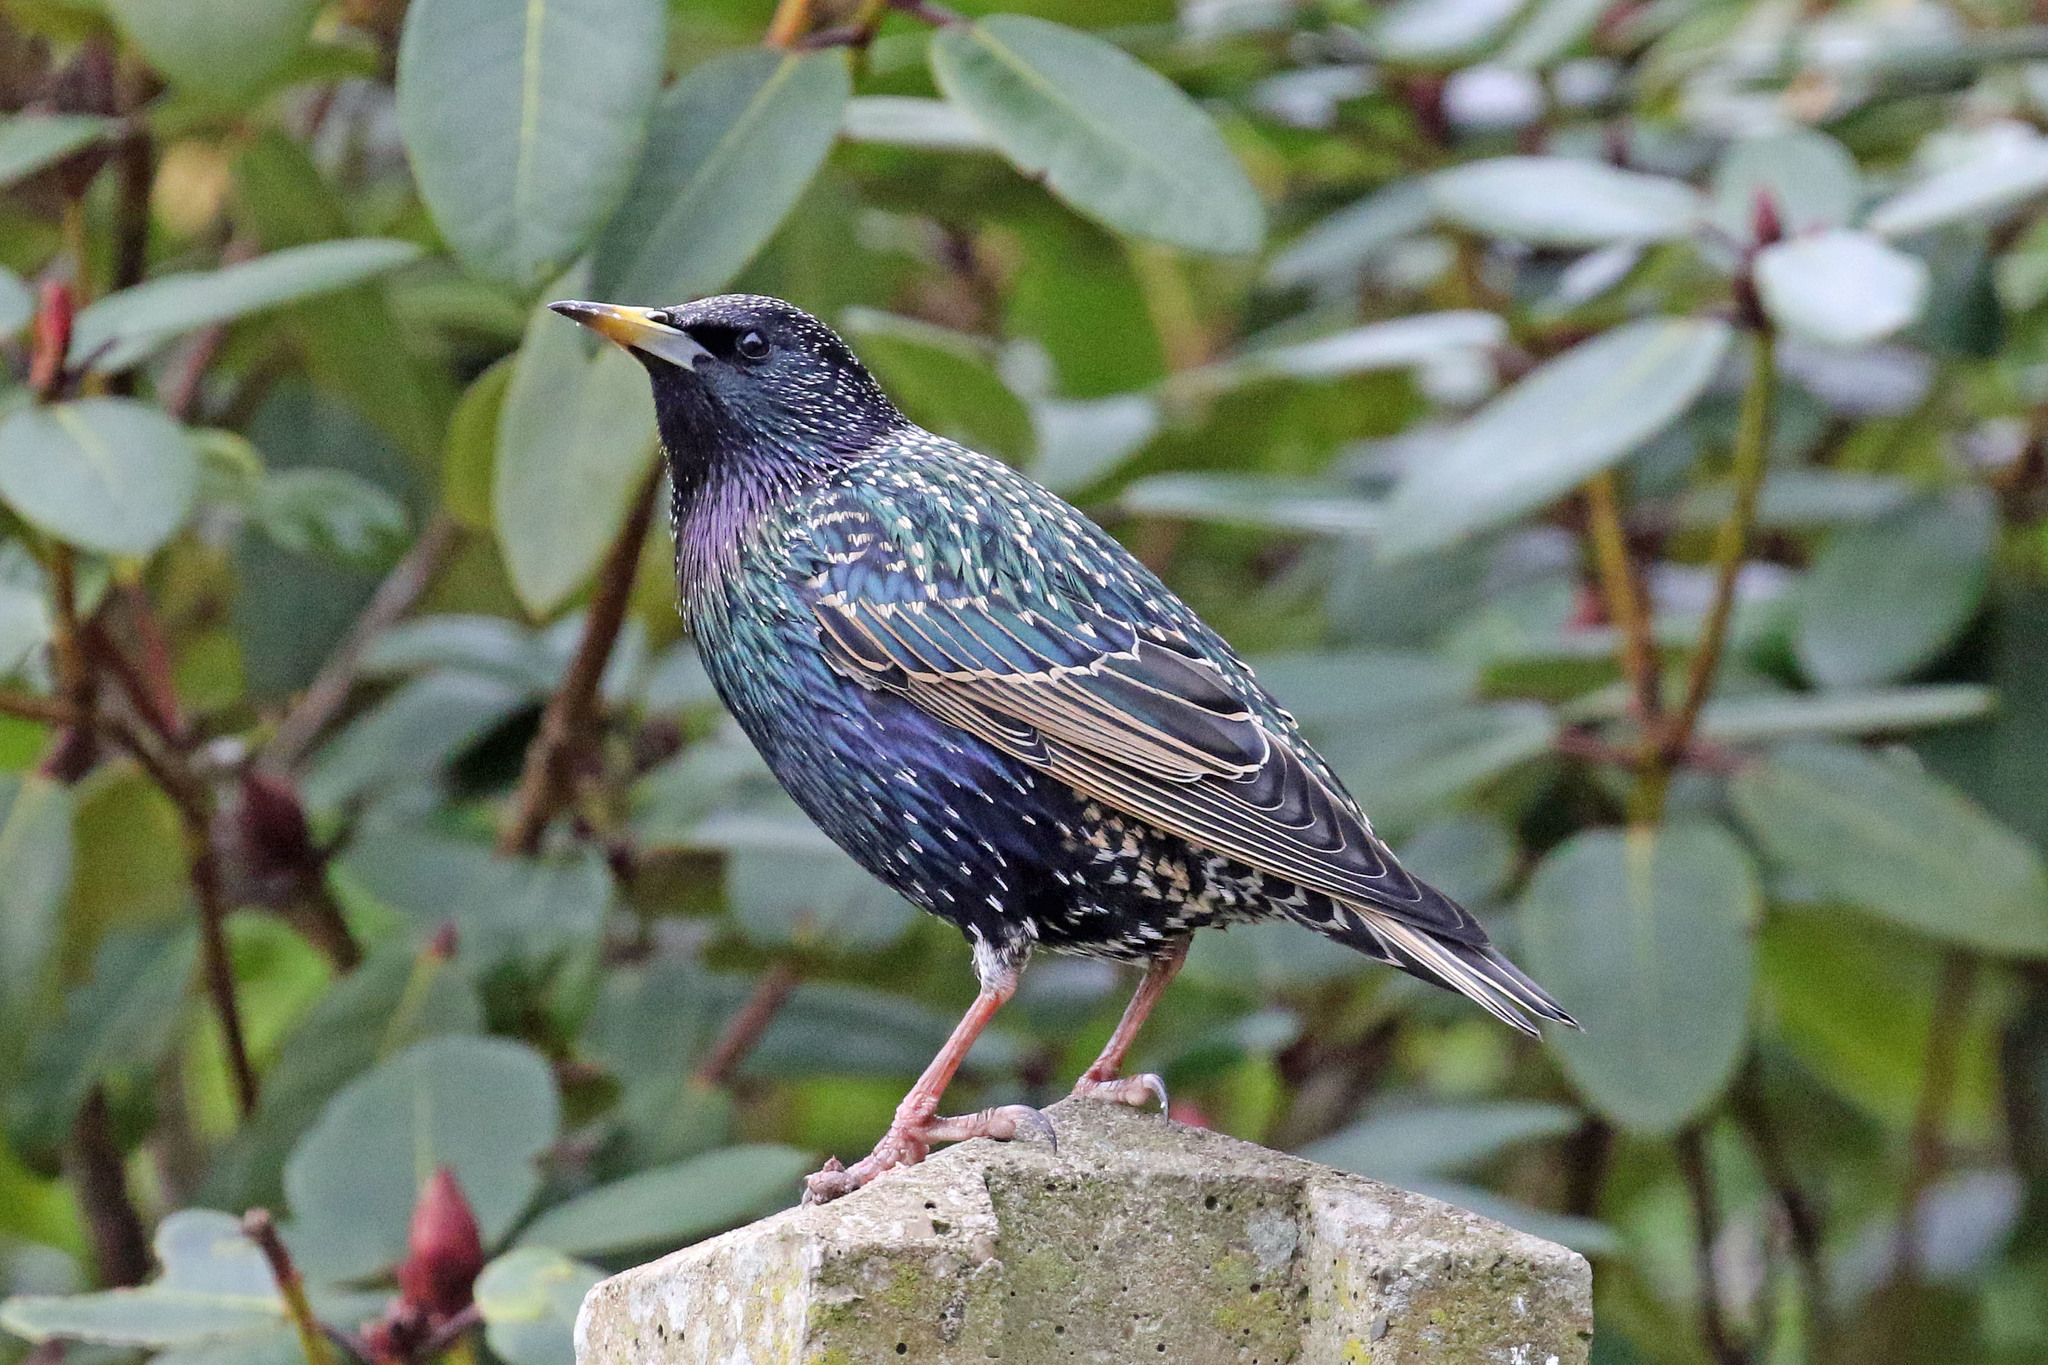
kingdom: Animalia
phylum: Chordata
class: Aves
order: Passeriformes
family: Sturnidae
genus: Sturnus
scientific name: Sturnus vulgaris
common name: Common starling
